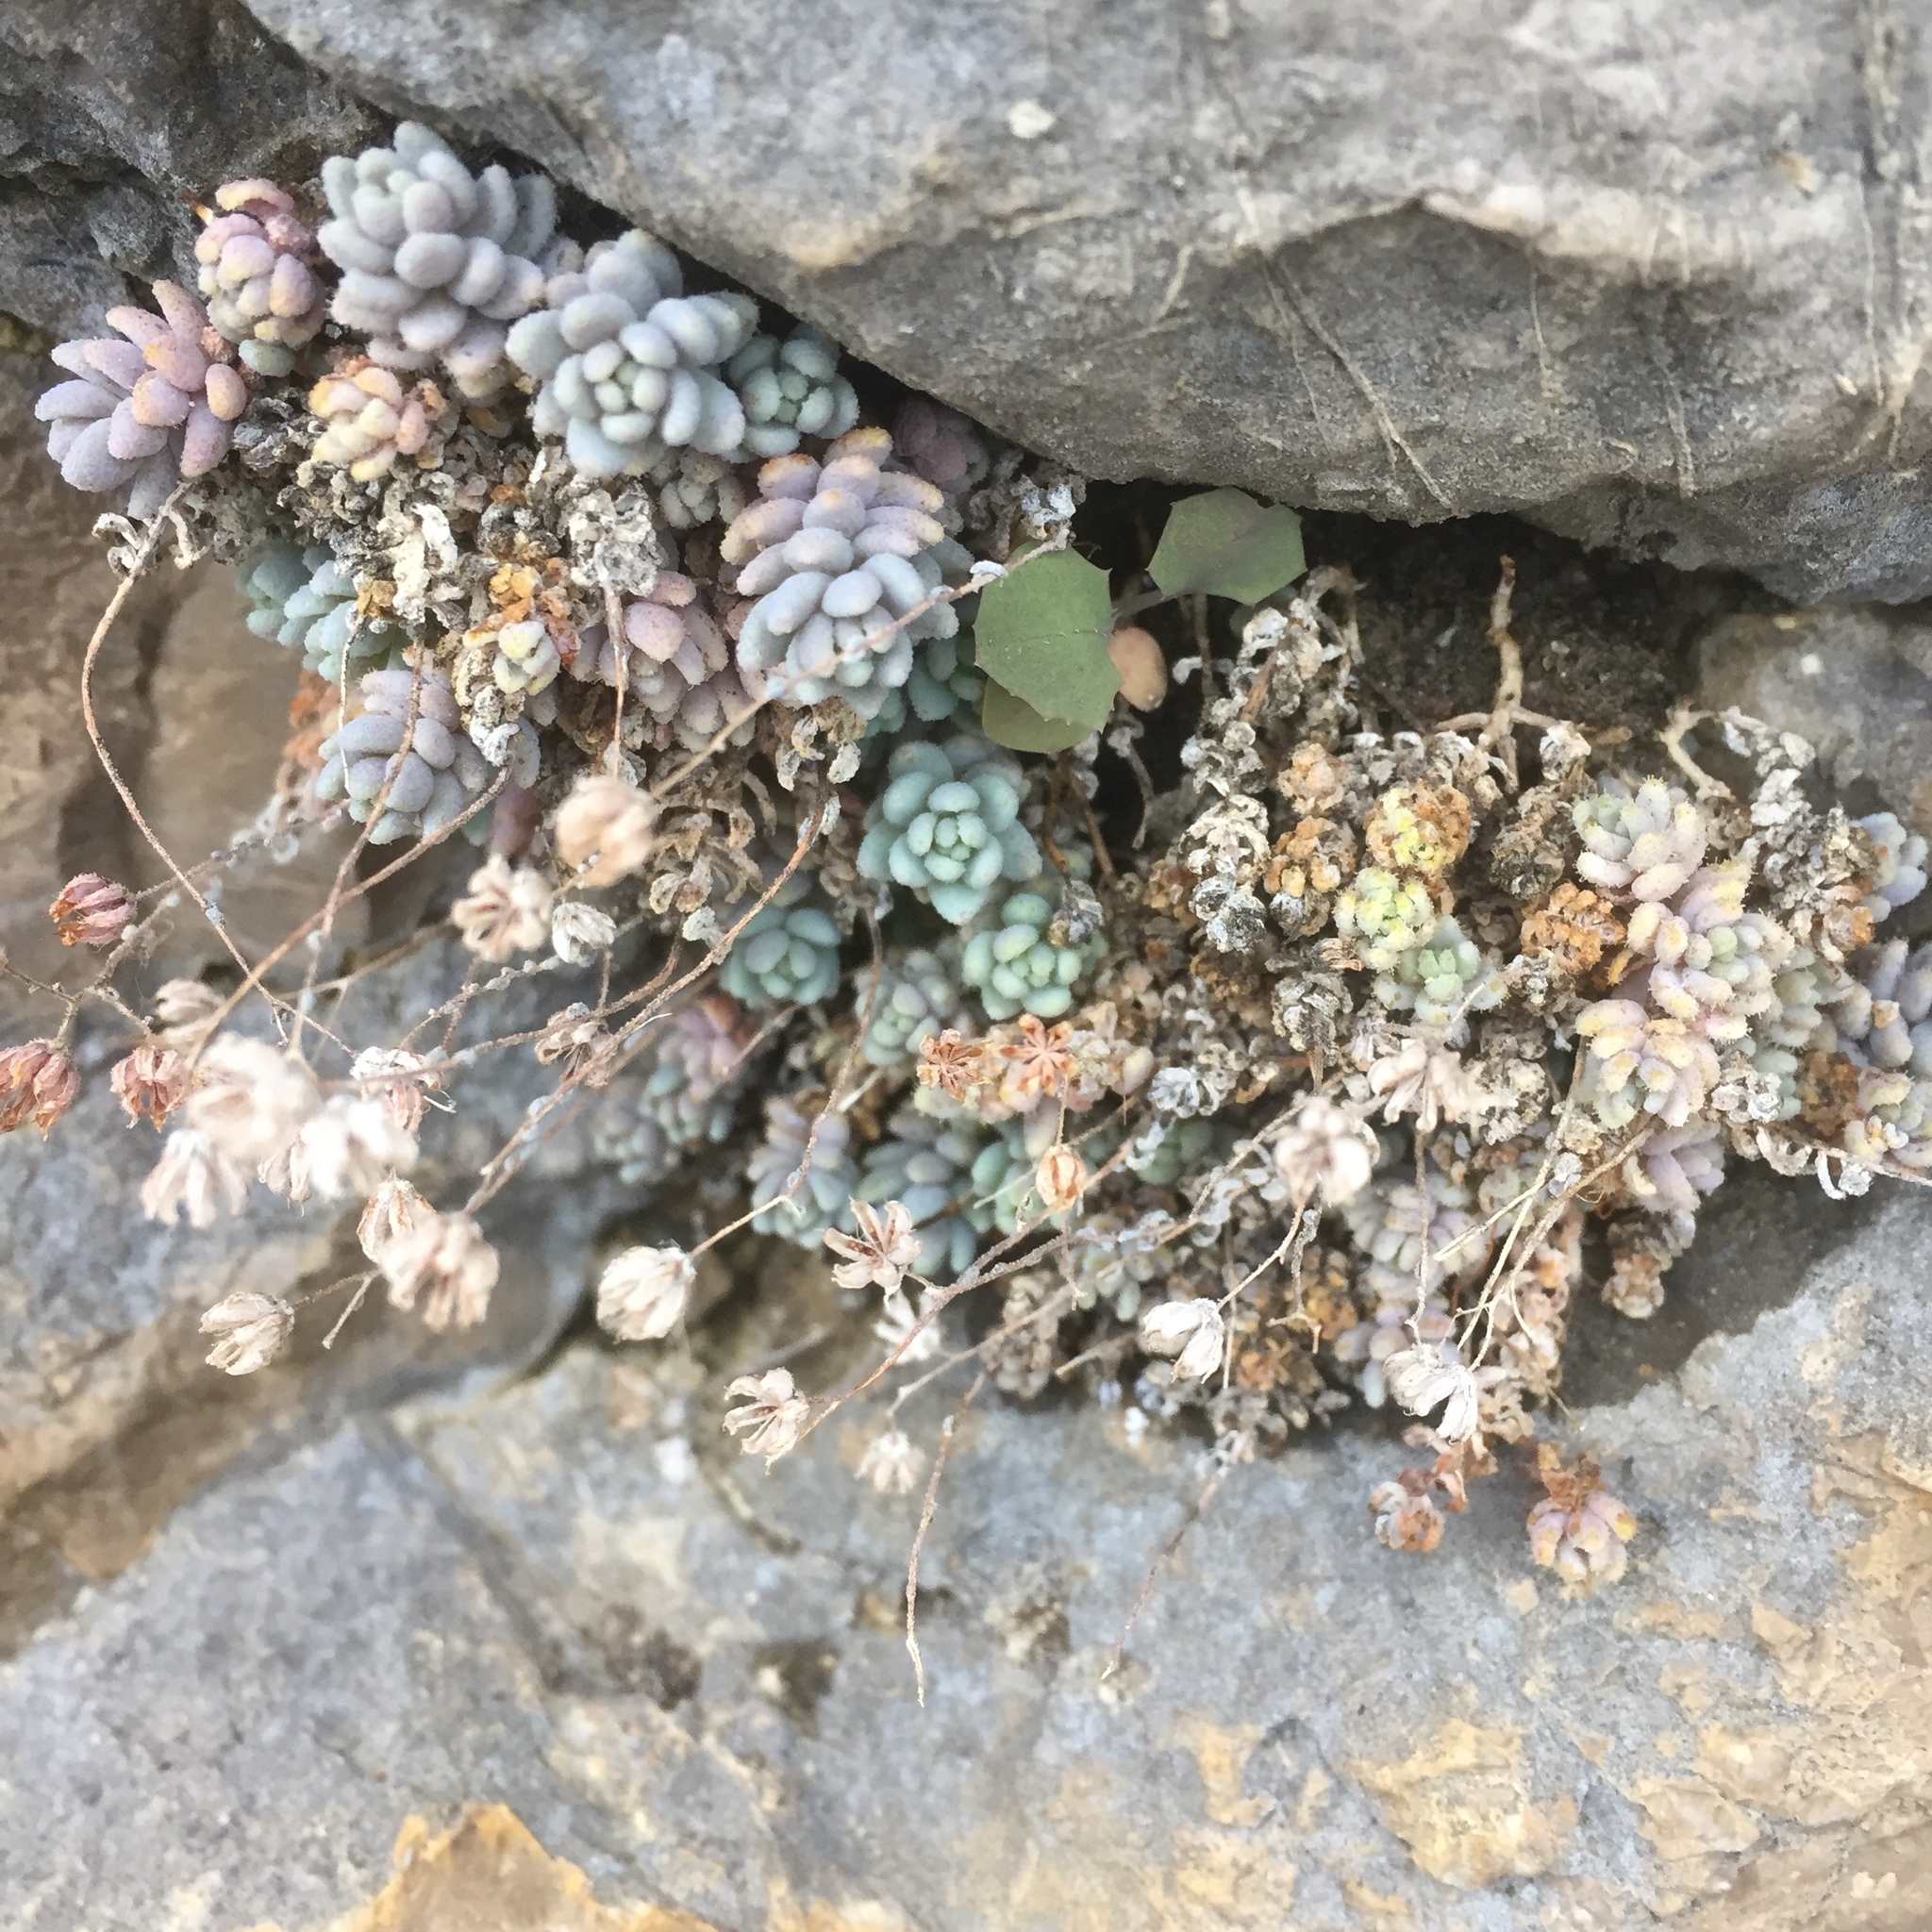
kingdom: Plantae
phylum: Tracheophyta
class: Magnoliopsida
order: Saxifragales
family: Crassulaceae
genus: Sedum
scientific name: Sedum dasyphyllum
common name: Thick-leaf stonecrop
